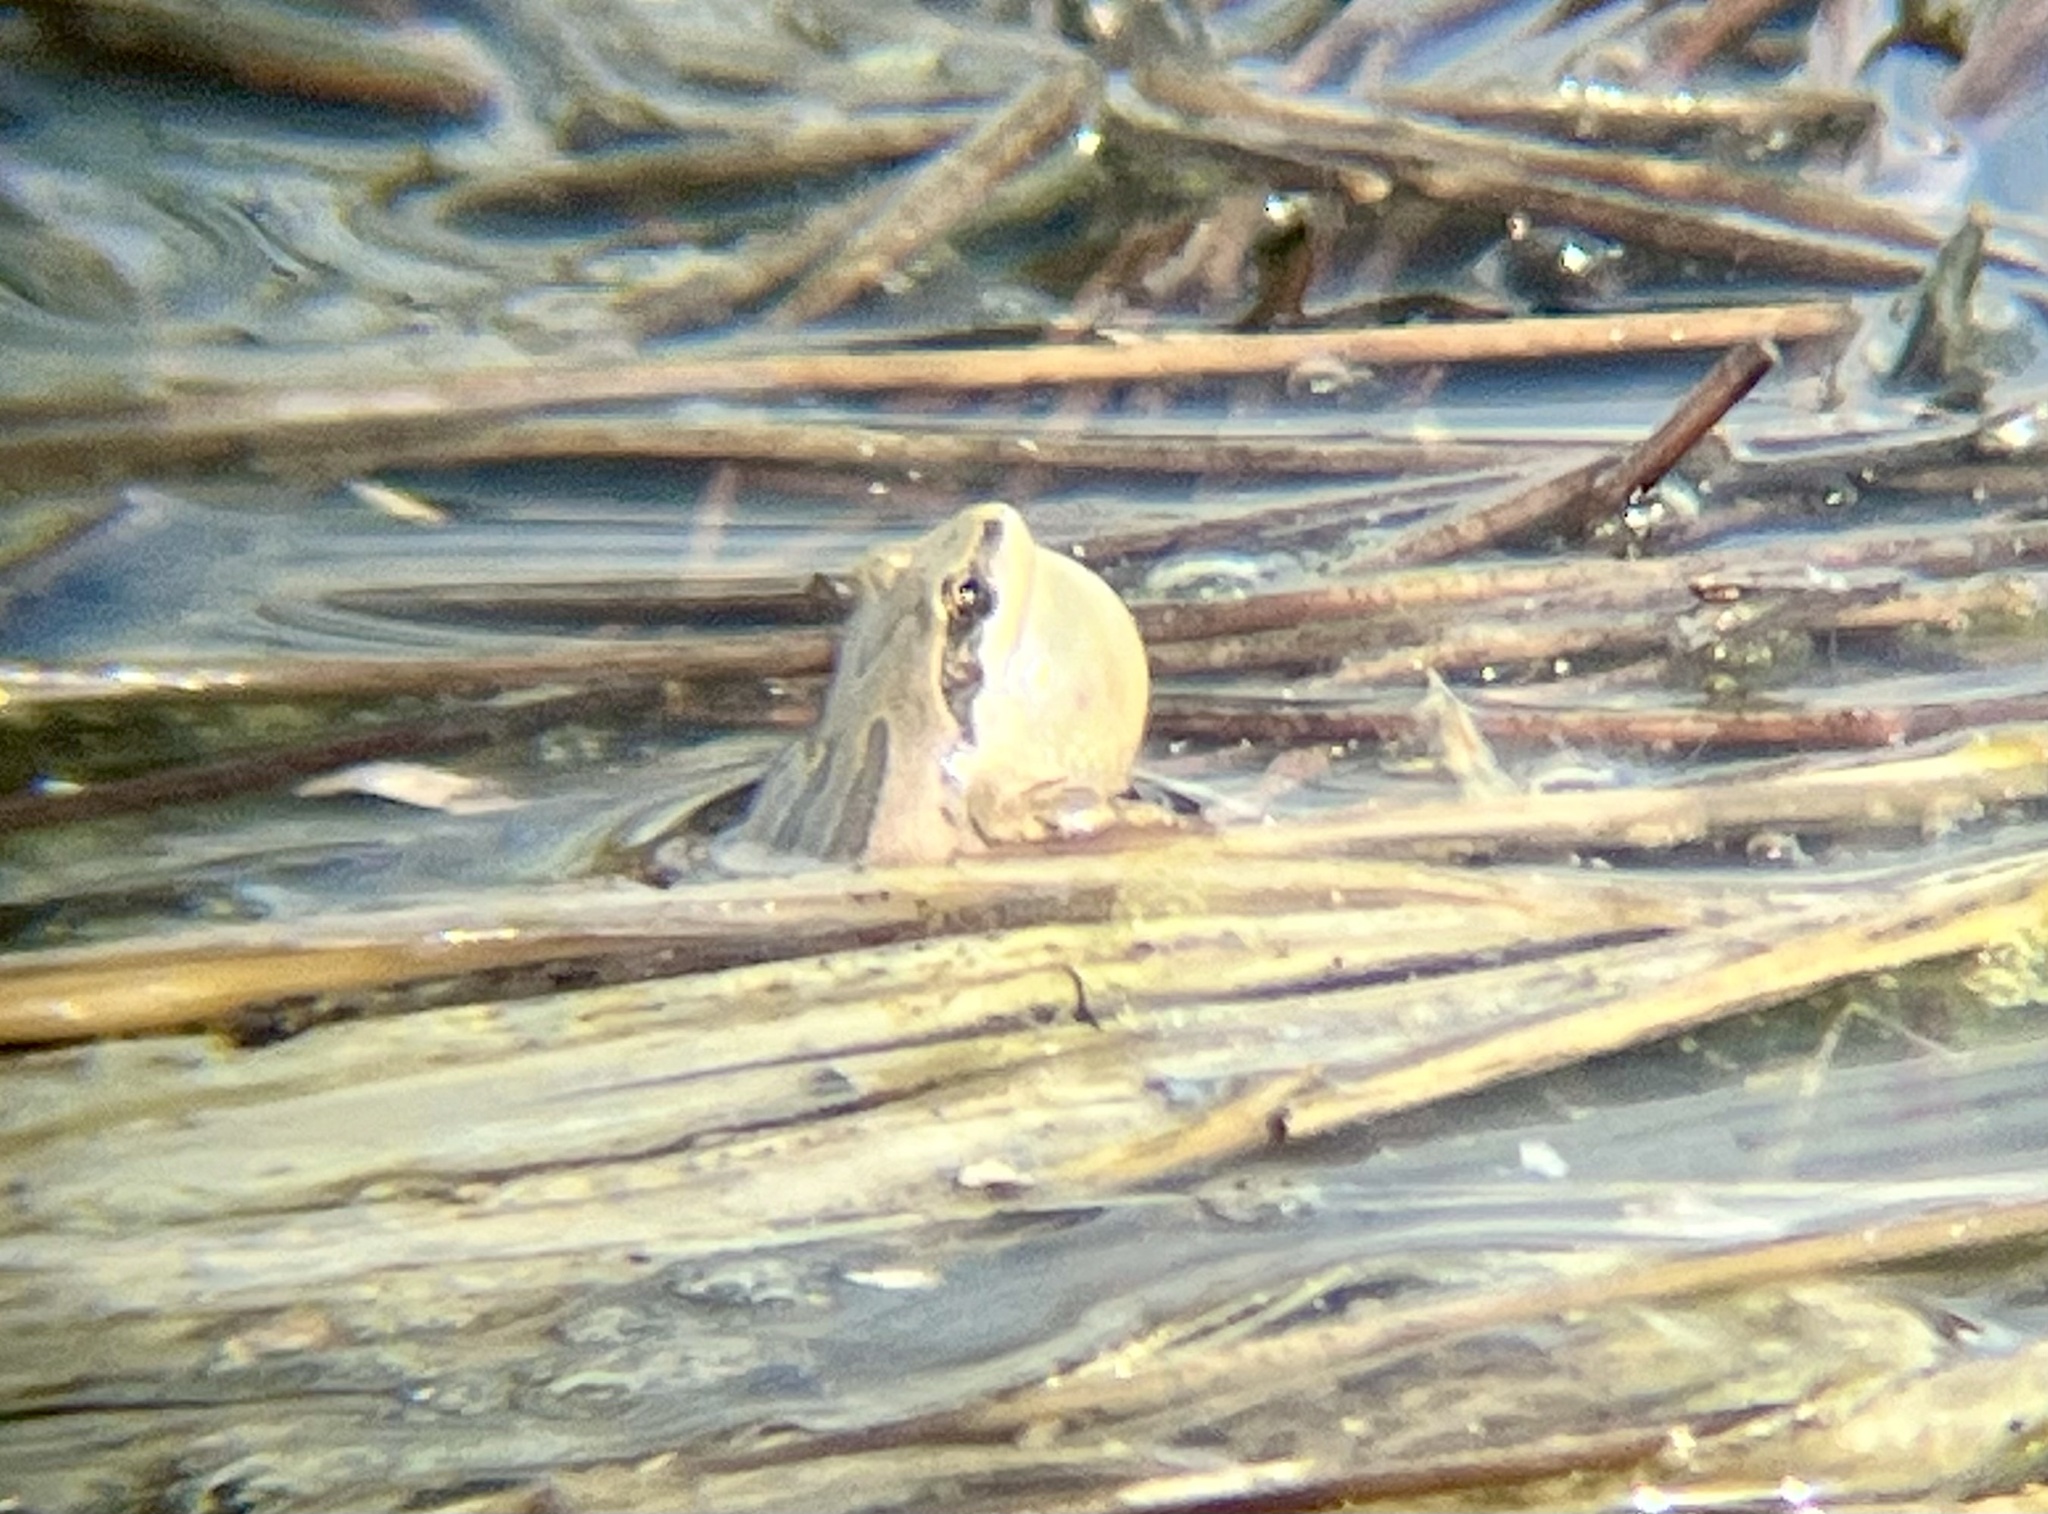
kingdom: Animalia
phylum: Chordata
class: Amphibia
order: Anura
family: Hylidae
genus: Pseudacris
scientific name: Pseudacris maculata
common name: Boreal chorus frog
